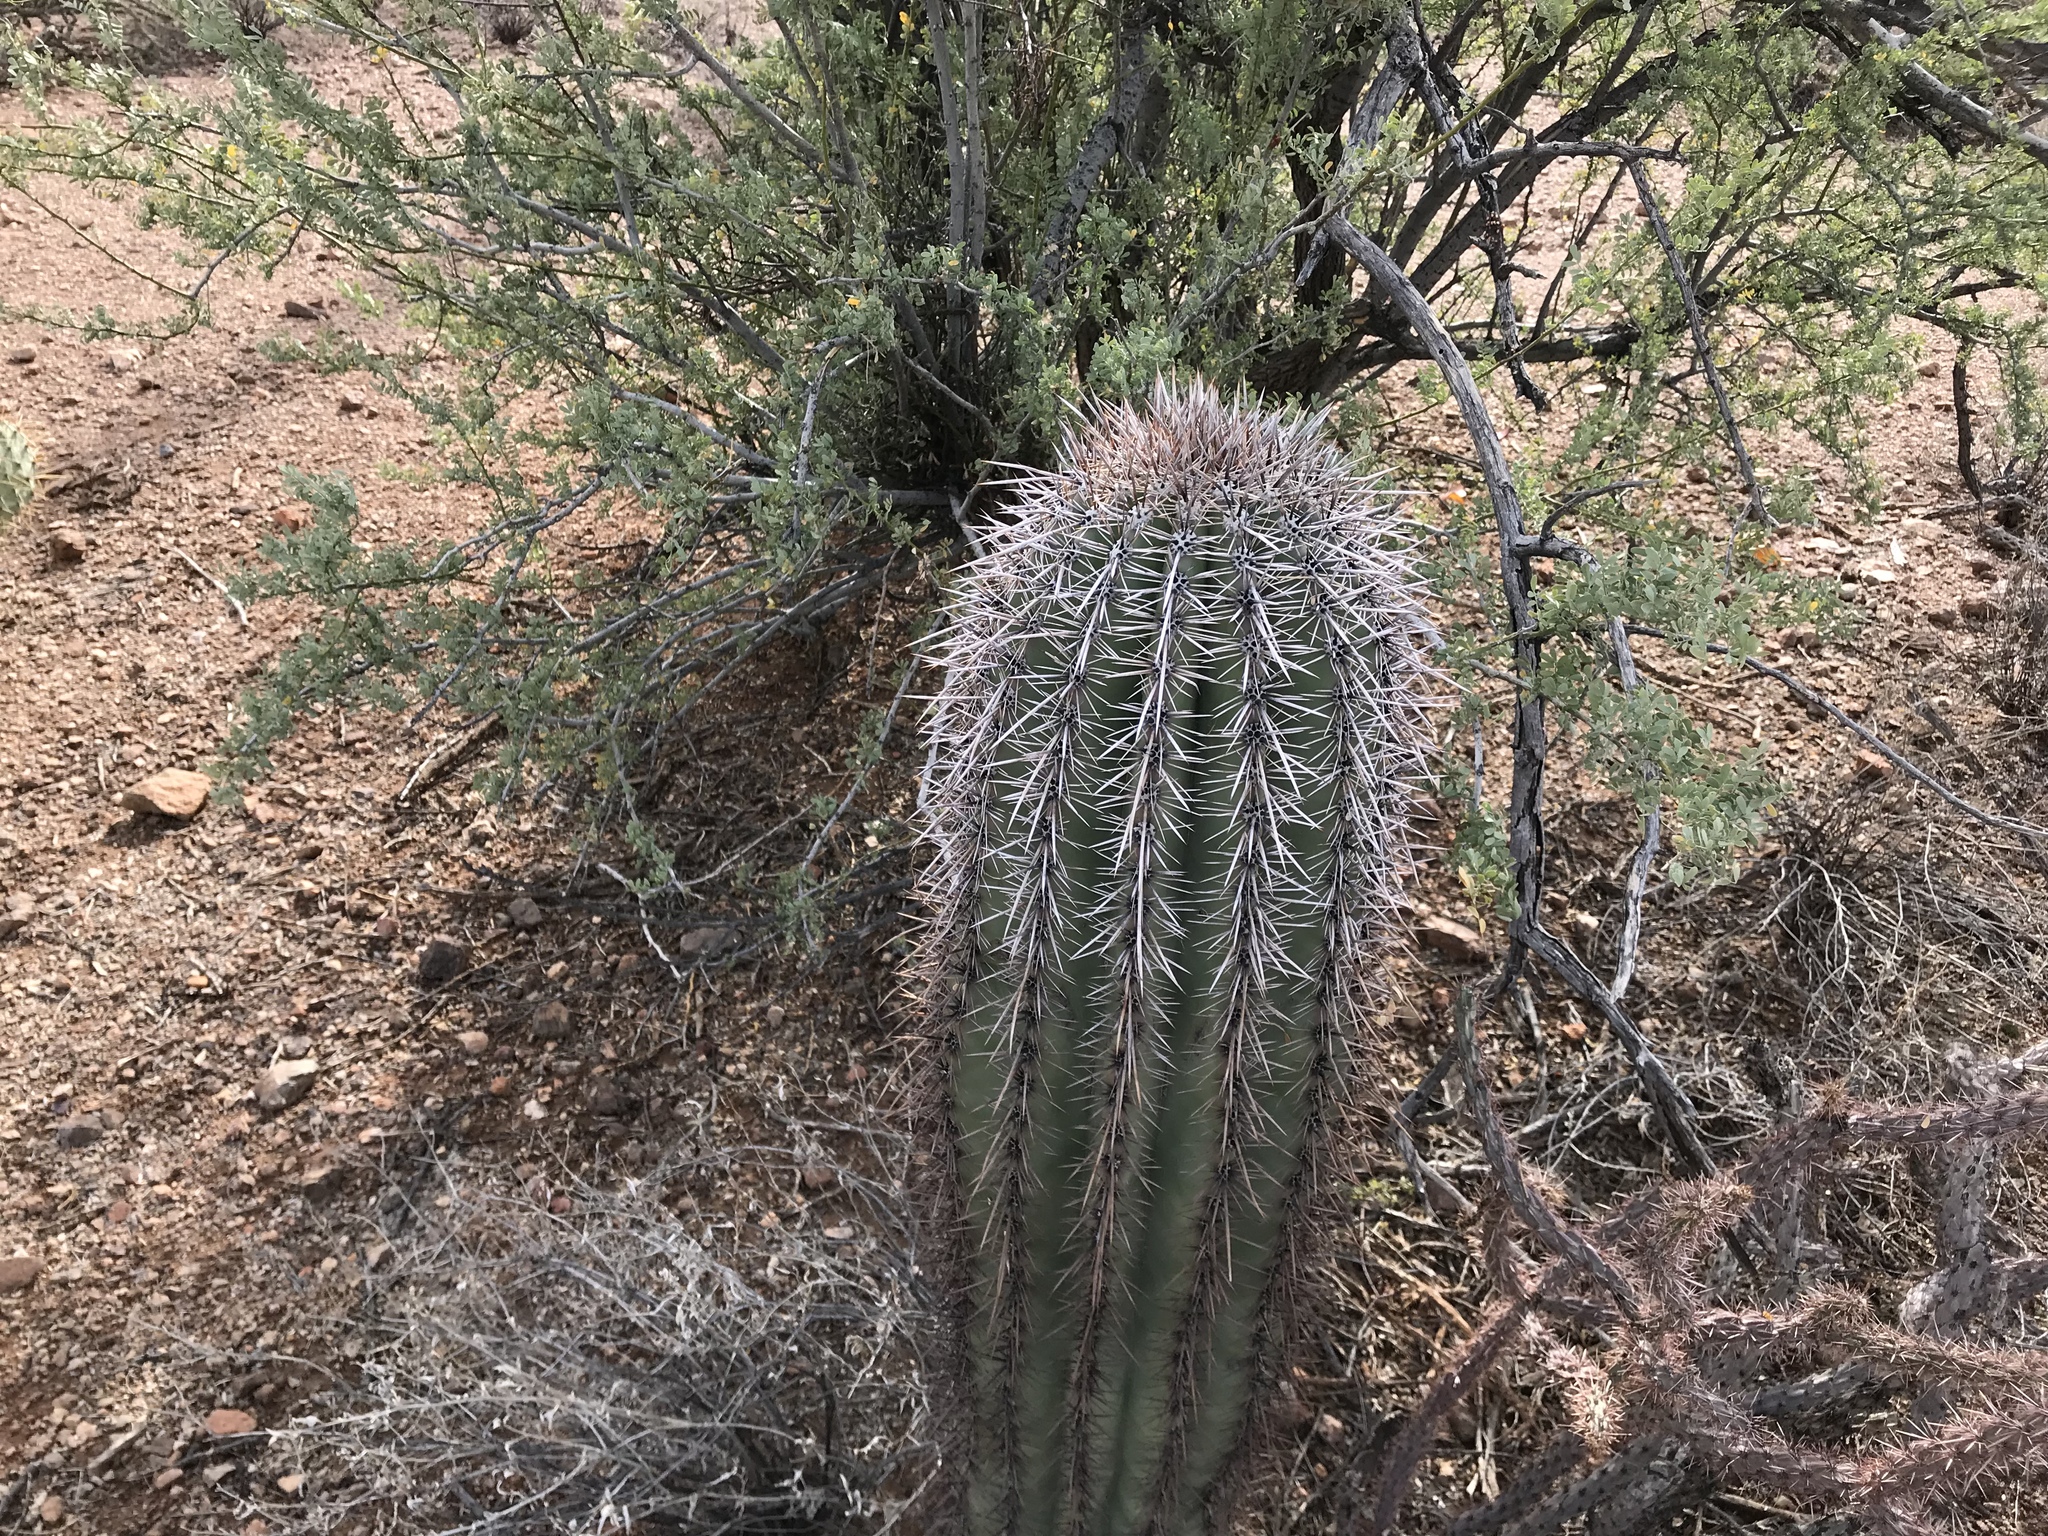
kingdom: Plantae
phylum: Tracheophyta
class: Magnoliopsida
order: Caryophyllales
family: Cactaceae
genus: Carnegiea
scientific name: Carnegiea gigantea
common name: Saguaro
